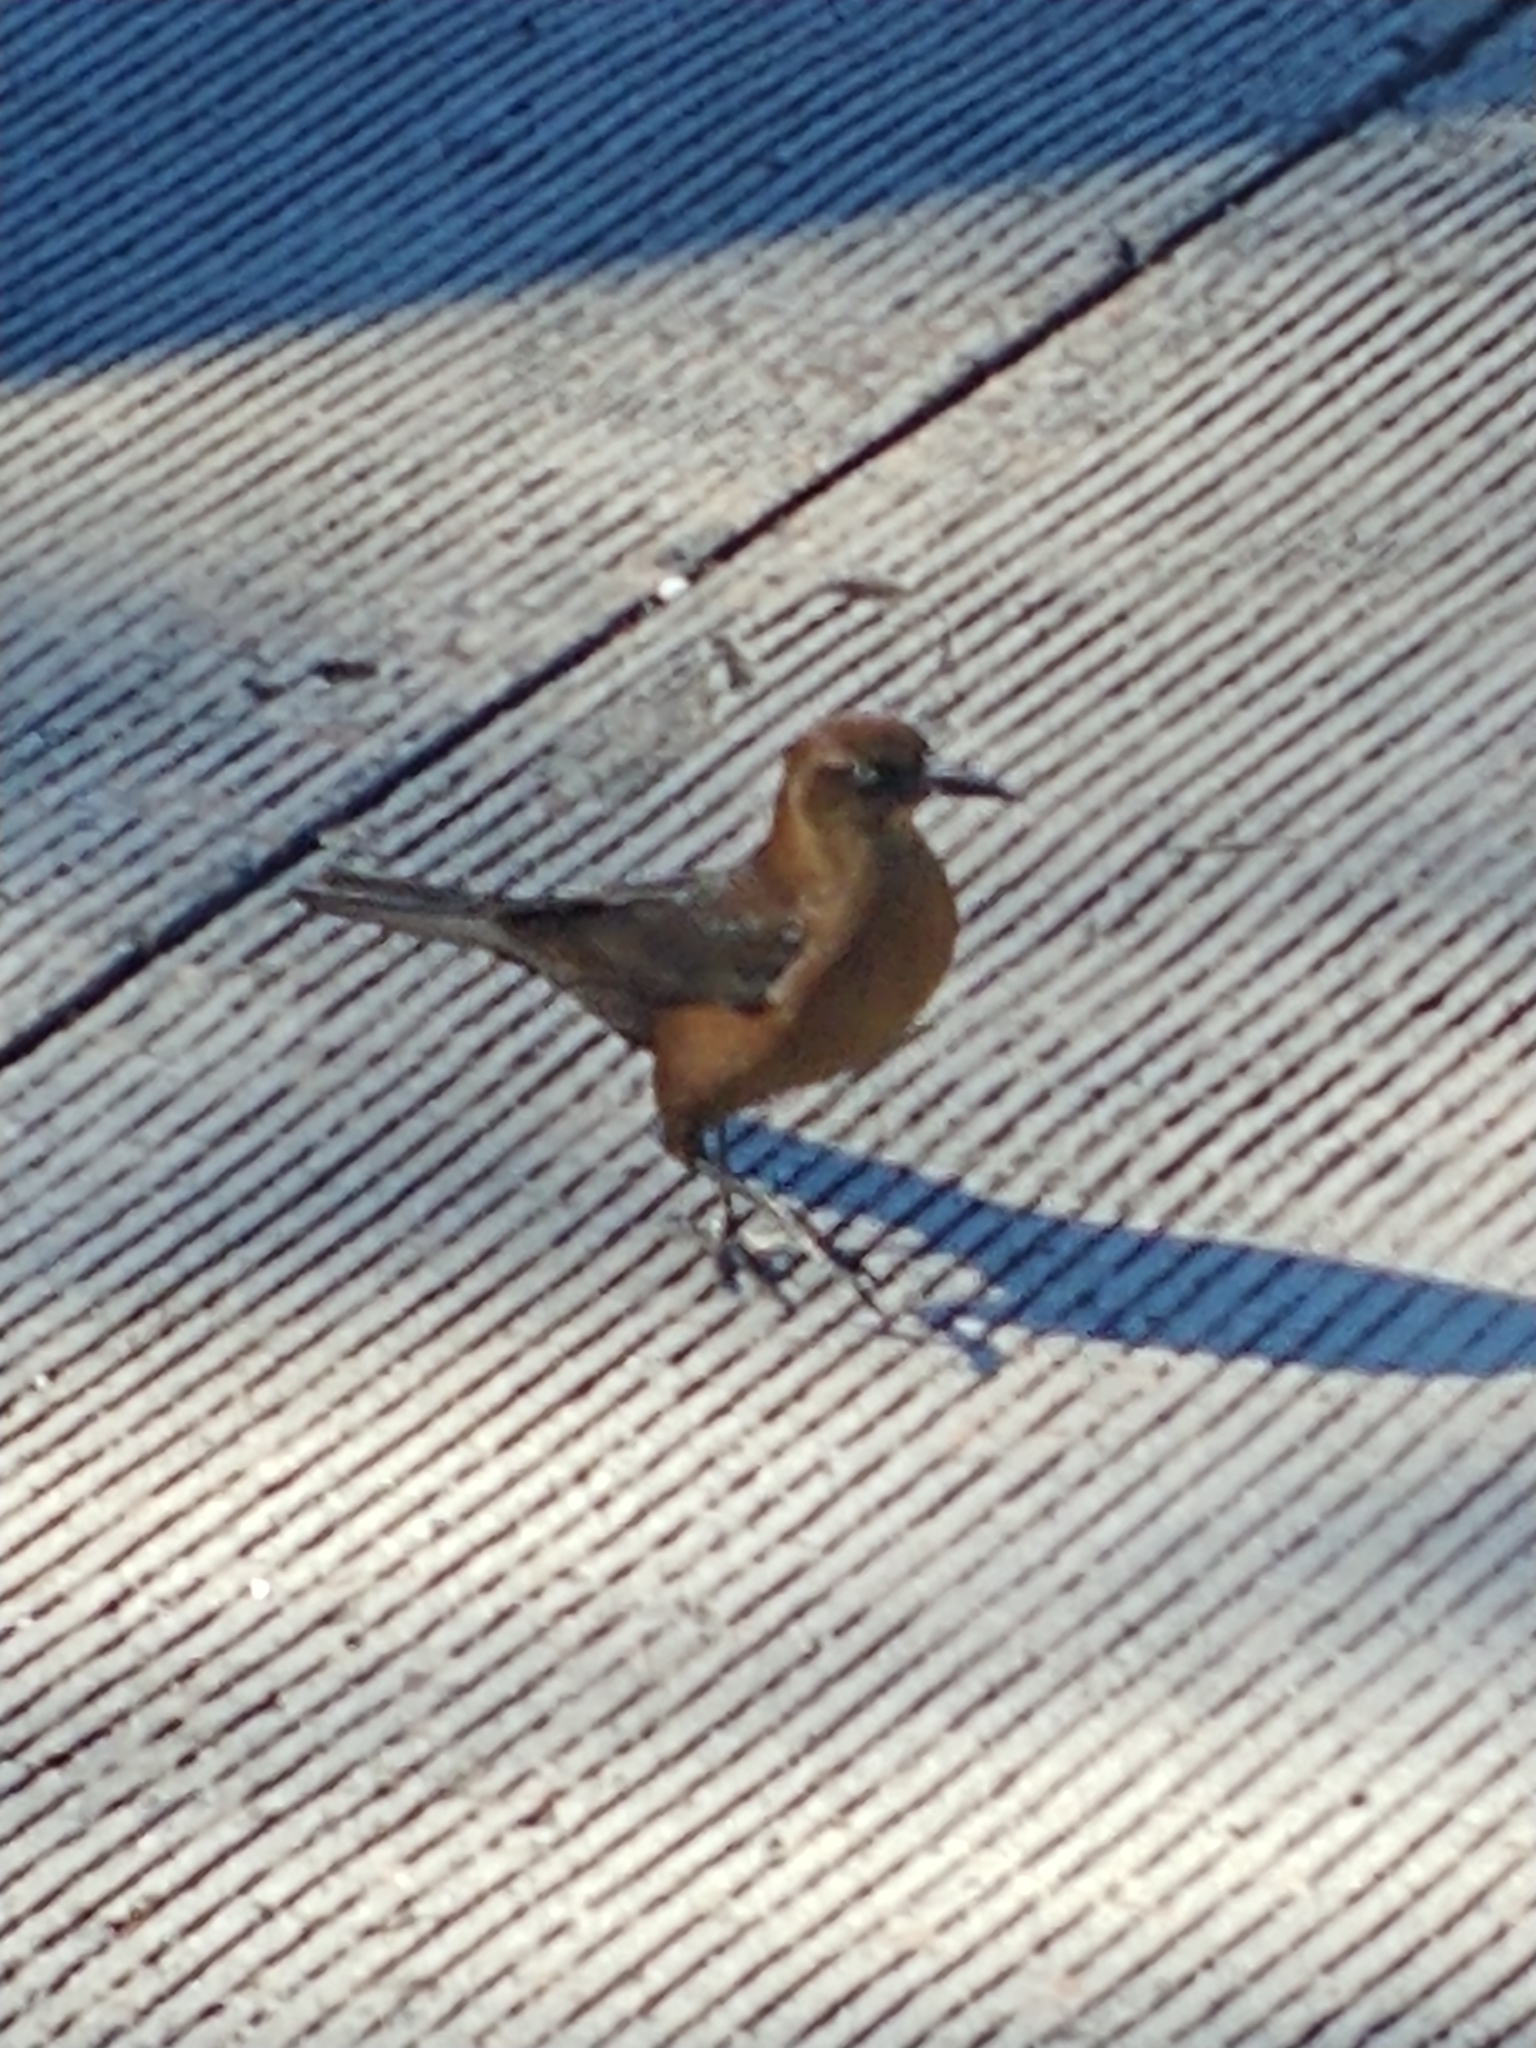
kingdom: Animalia
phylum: Chordata
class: Aves
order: Passeriformes
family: Icteridae
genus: Quiscalus
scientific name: Quiscalus major
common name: Boat-tailed grackle
